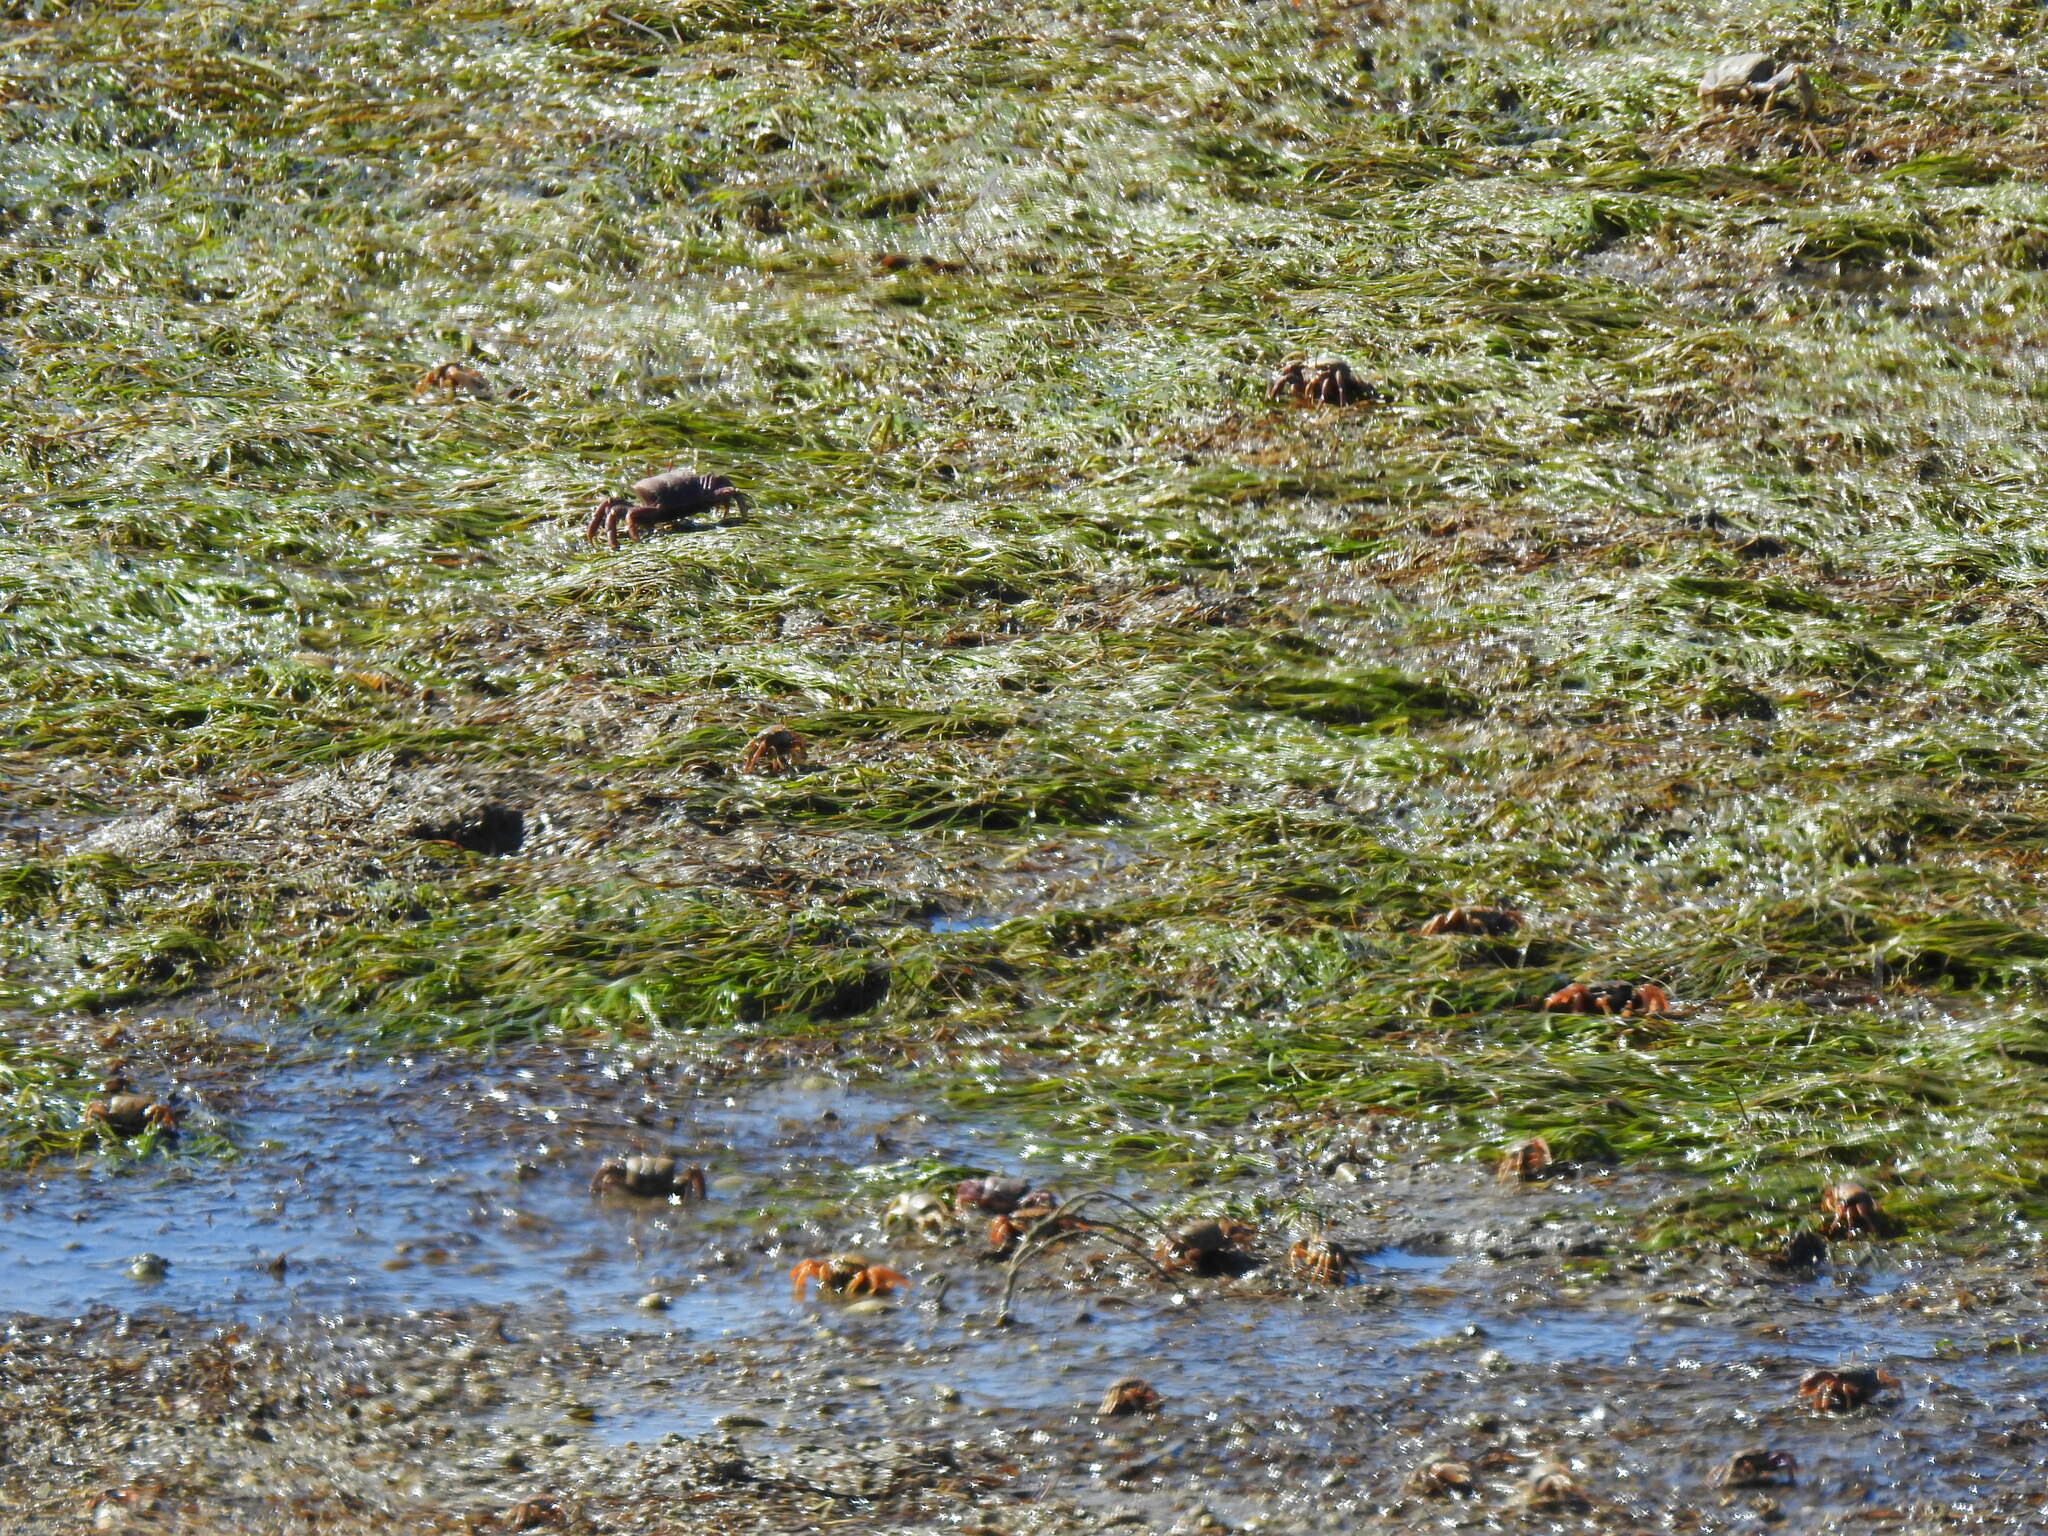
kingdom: Plantae
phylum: Tracheophyta
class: Liliopsida
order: Alismatales
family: Zosteraceae
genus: Zostera
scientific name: Zostera noltii
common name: Dwarf eelgrass
